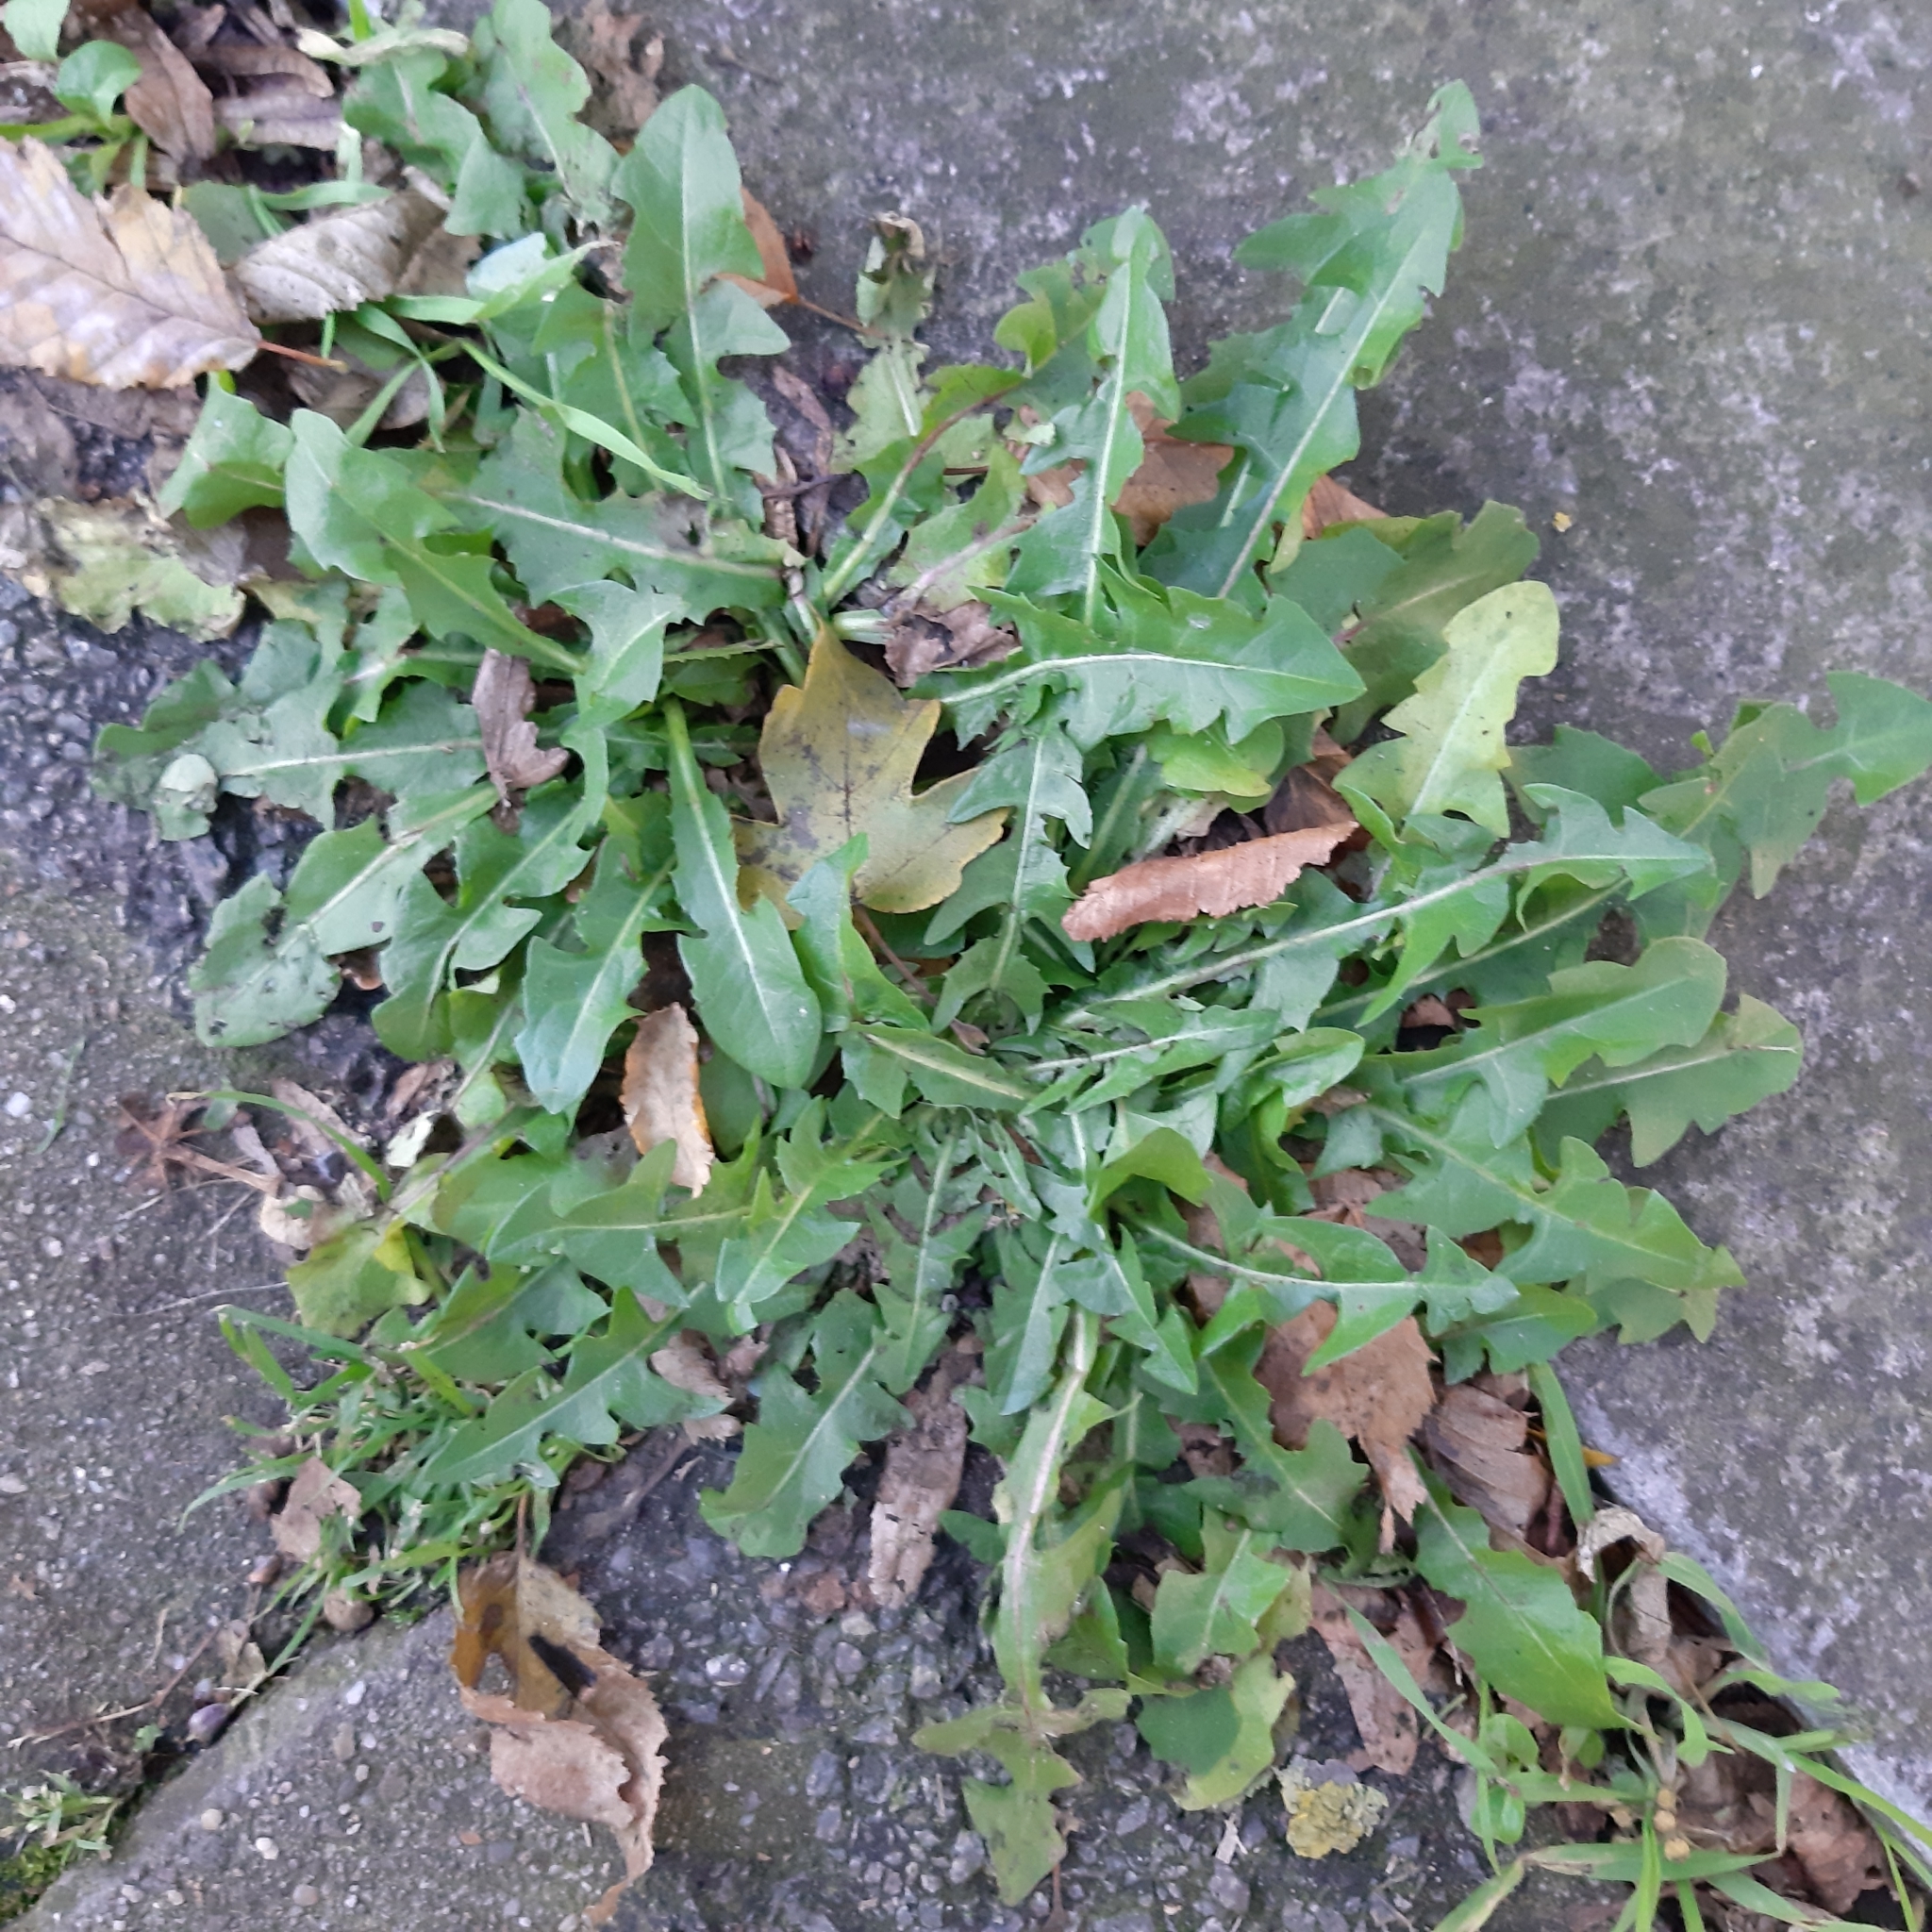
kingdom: Plantae
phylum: Tracheophyta
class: Magnoliopsida
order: Asterales
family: Asteraceae
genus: Taraxacum
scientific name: Taraxacum officinale
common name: Common dandelion
